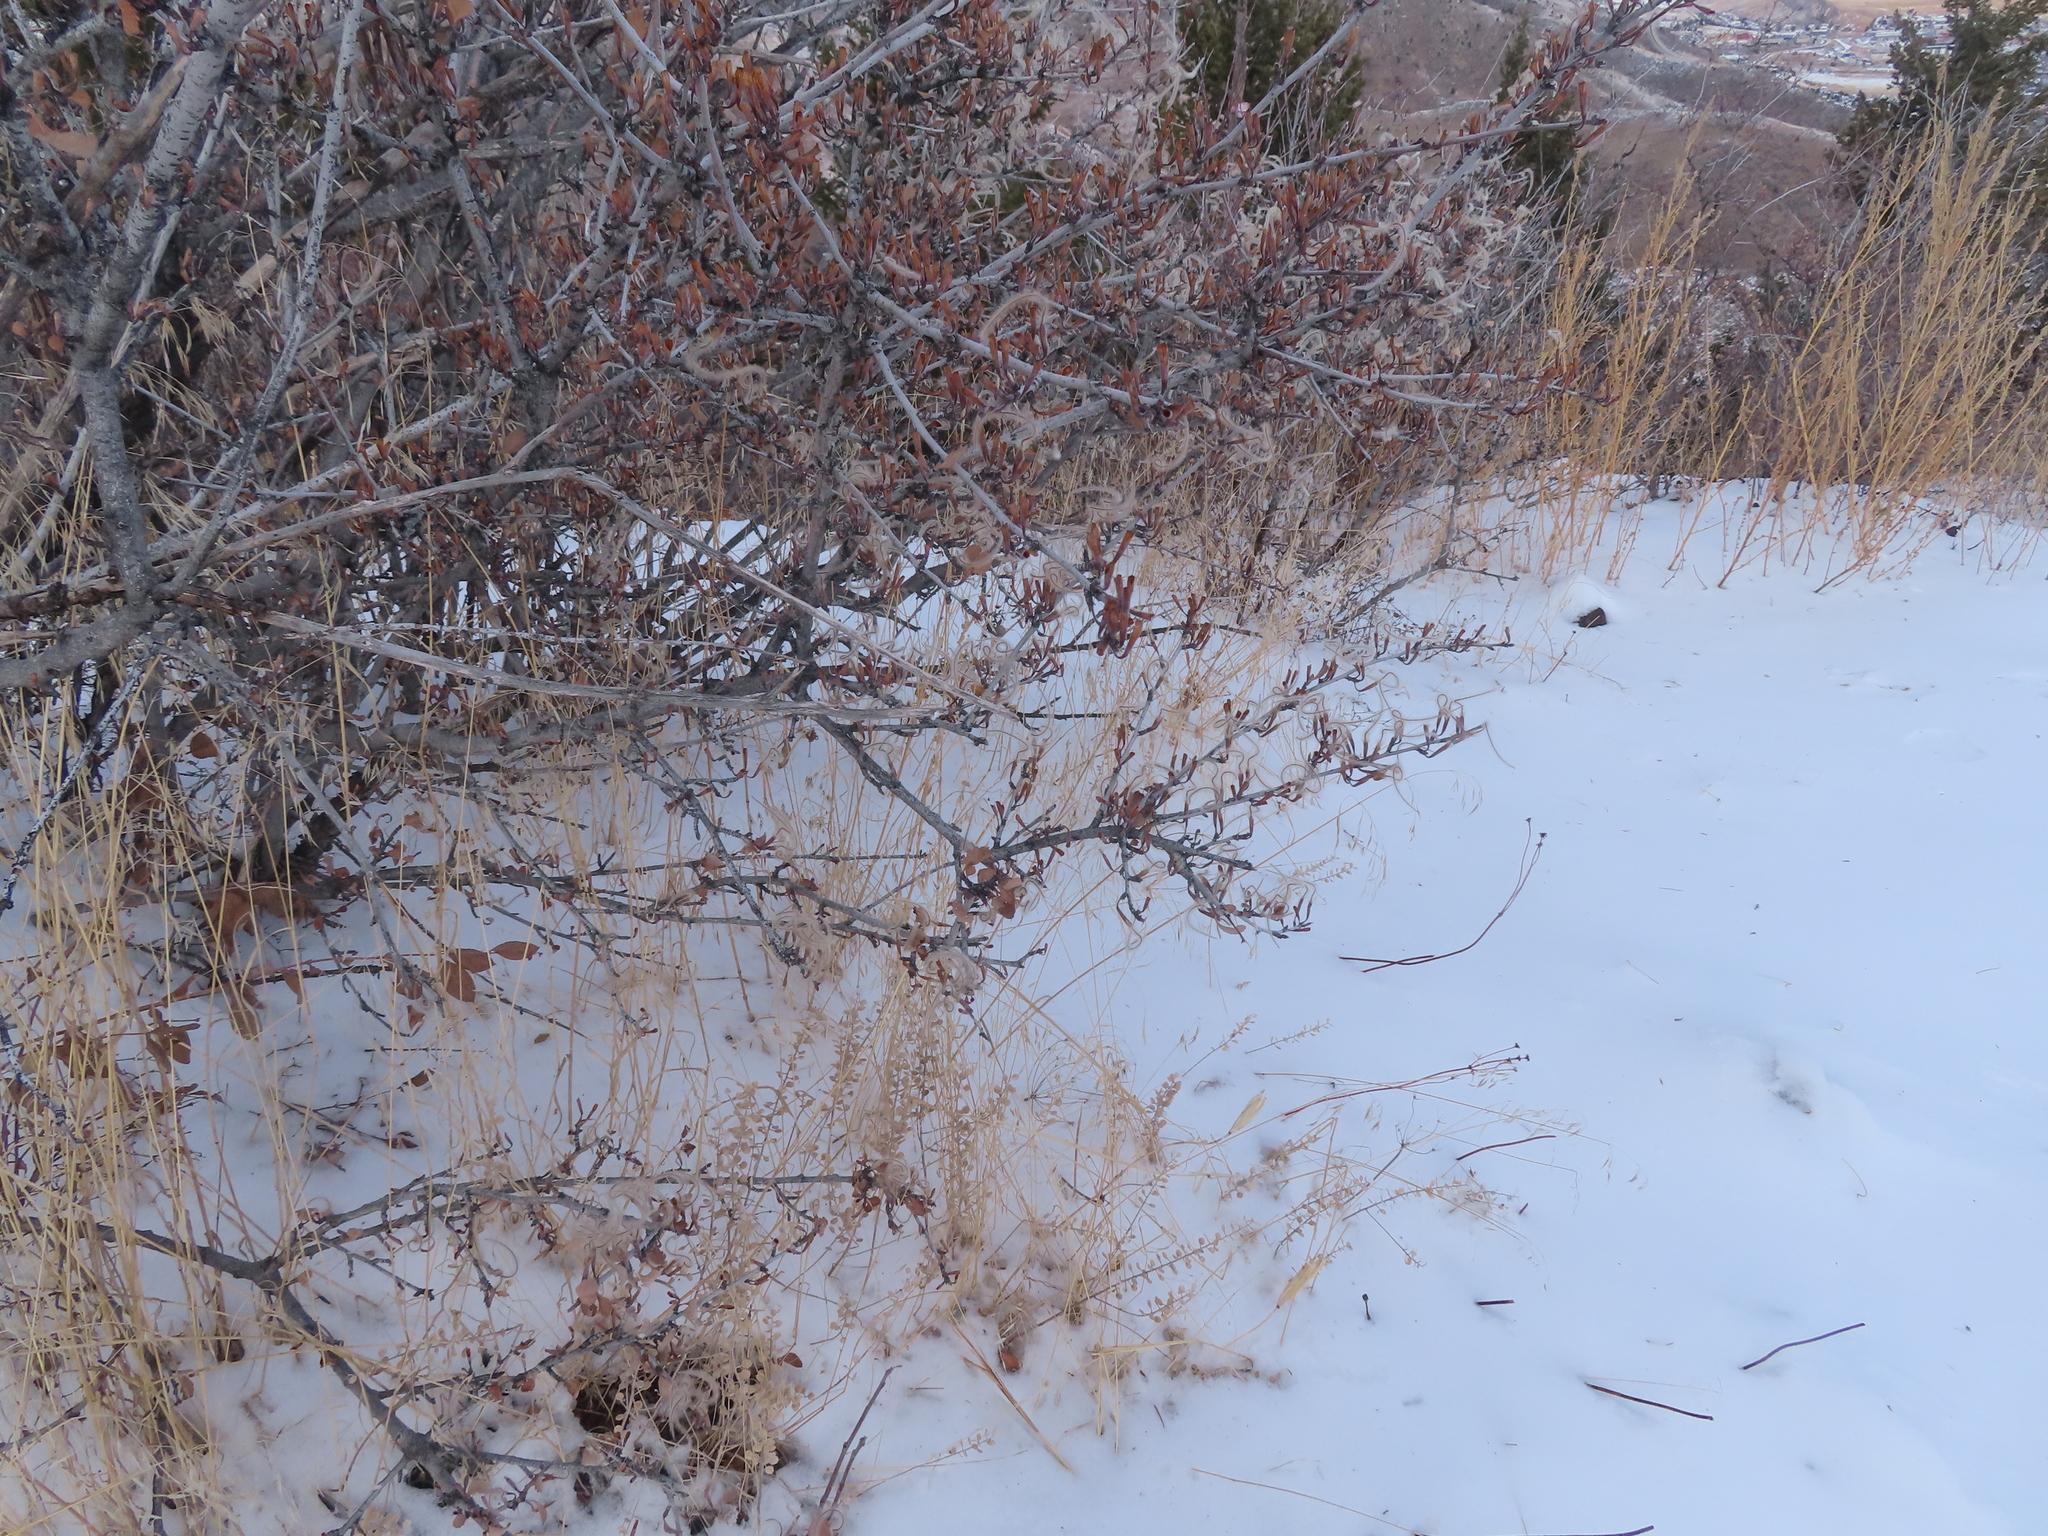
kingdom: Plantae
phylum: Tracheophyta
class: Magnoliopsida
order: Rosales
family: Rosaceae
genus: Cercocarpus
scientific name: Cercocarpus montanus
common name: Alder-leaf cercocarpus
